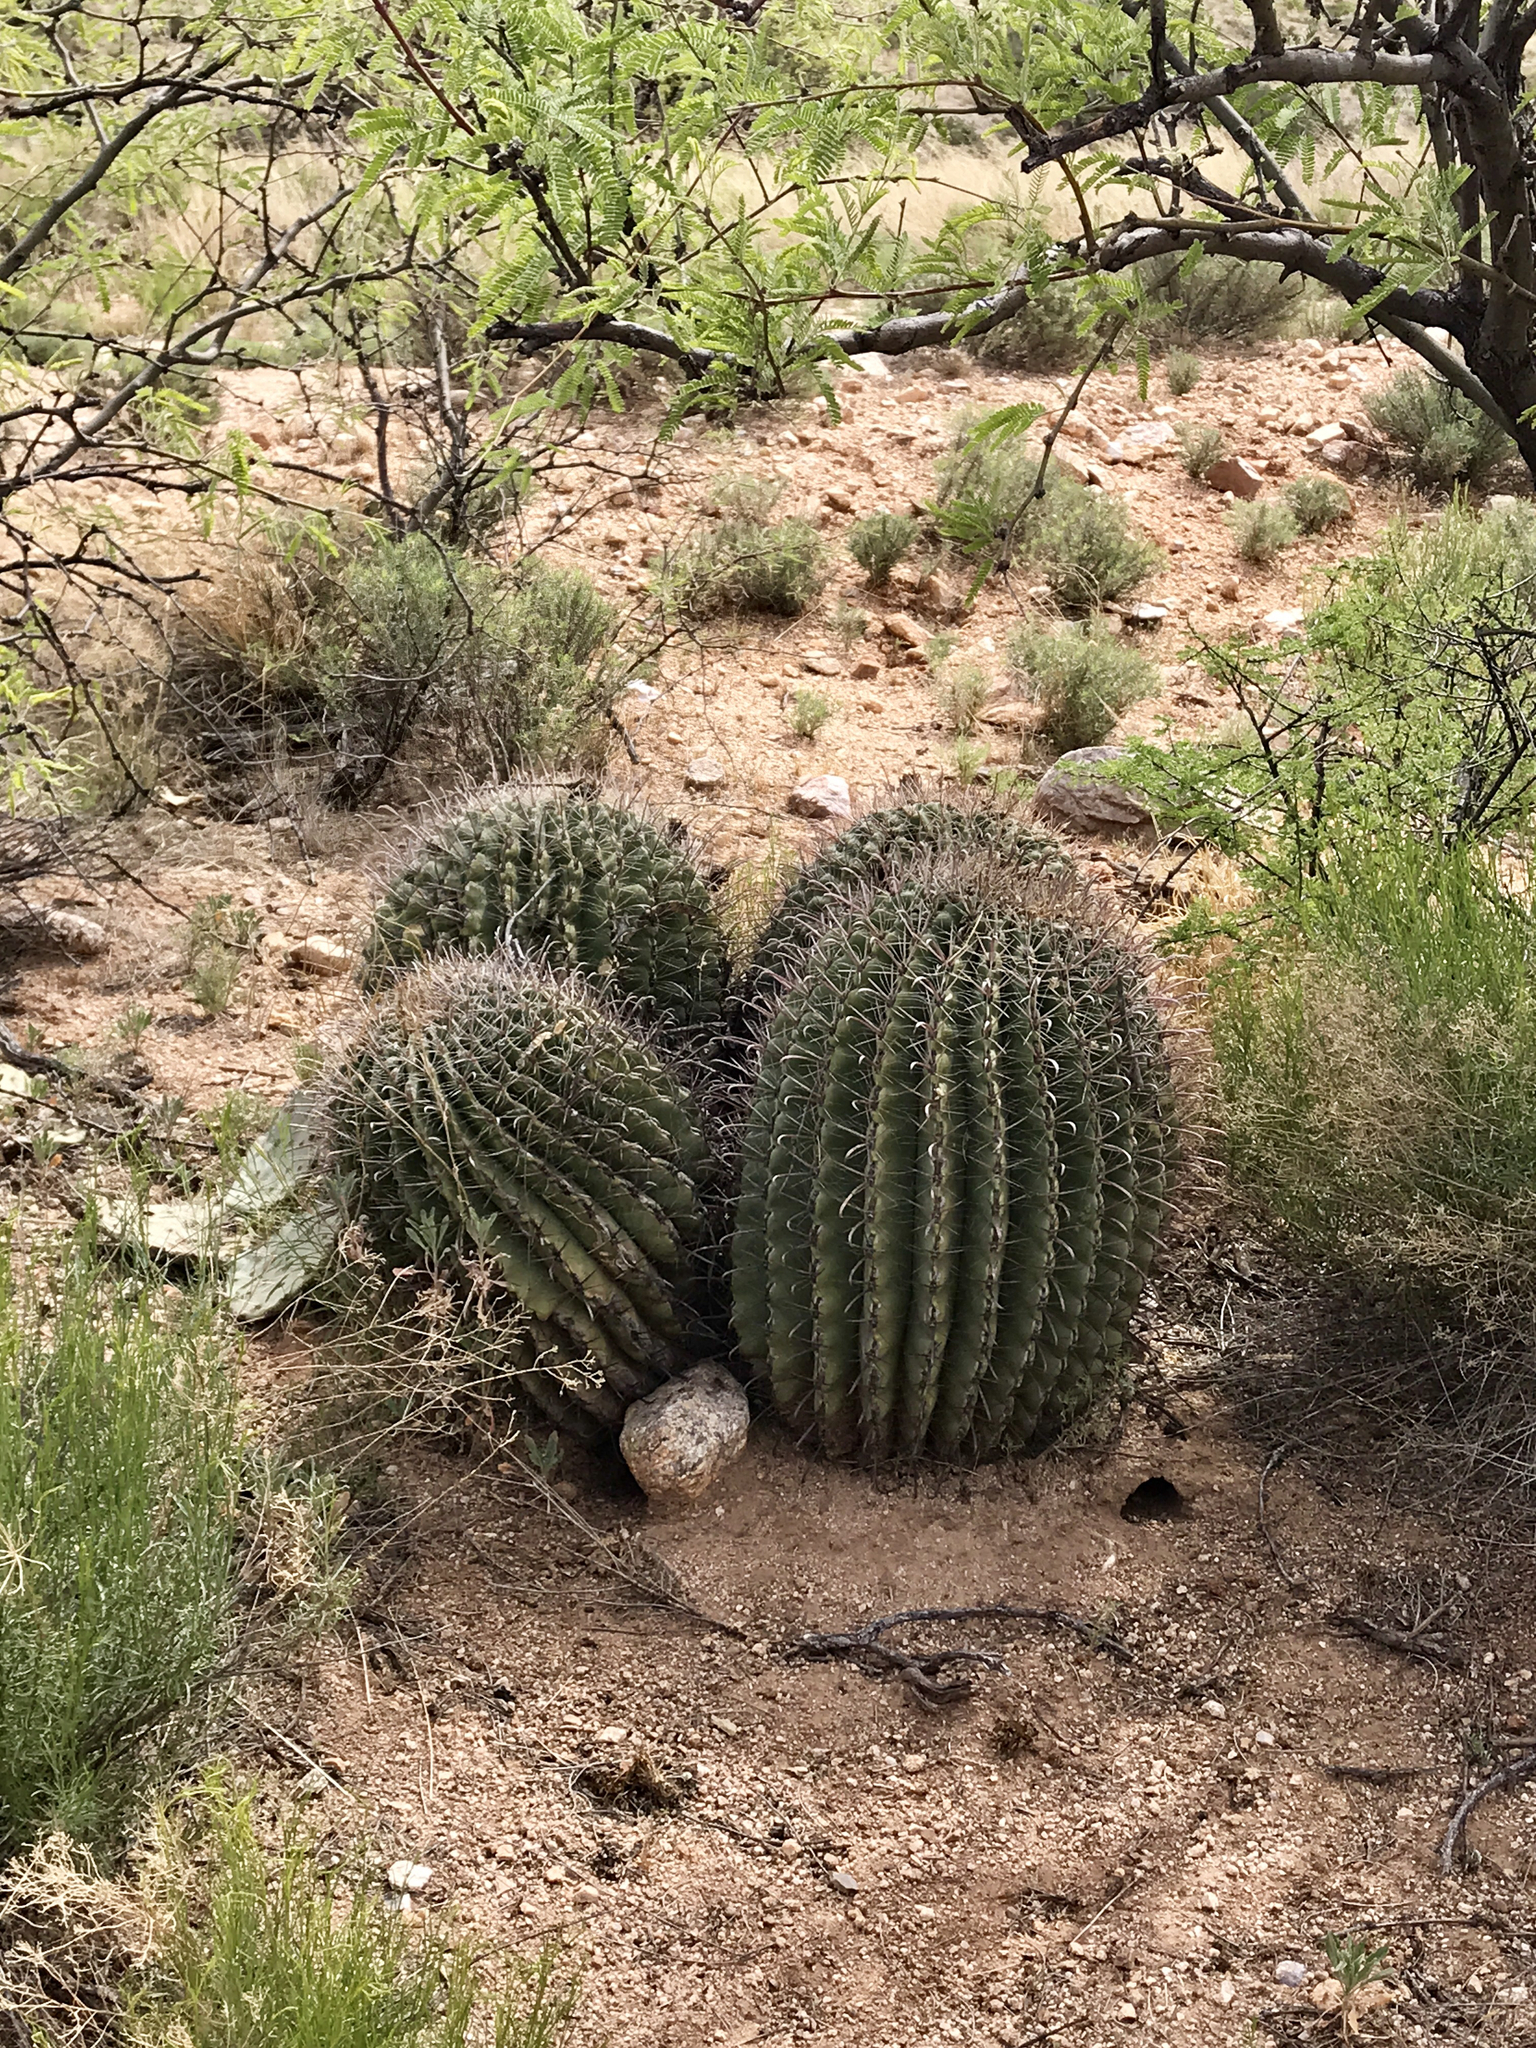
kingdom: Plantae
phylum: Tracheophyta
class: Magnoliopsida
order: Caryophyllales
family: Cactaceae
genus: Ferocactus
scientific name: Ferocactus wislizeni
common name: Candy barrel cactus
